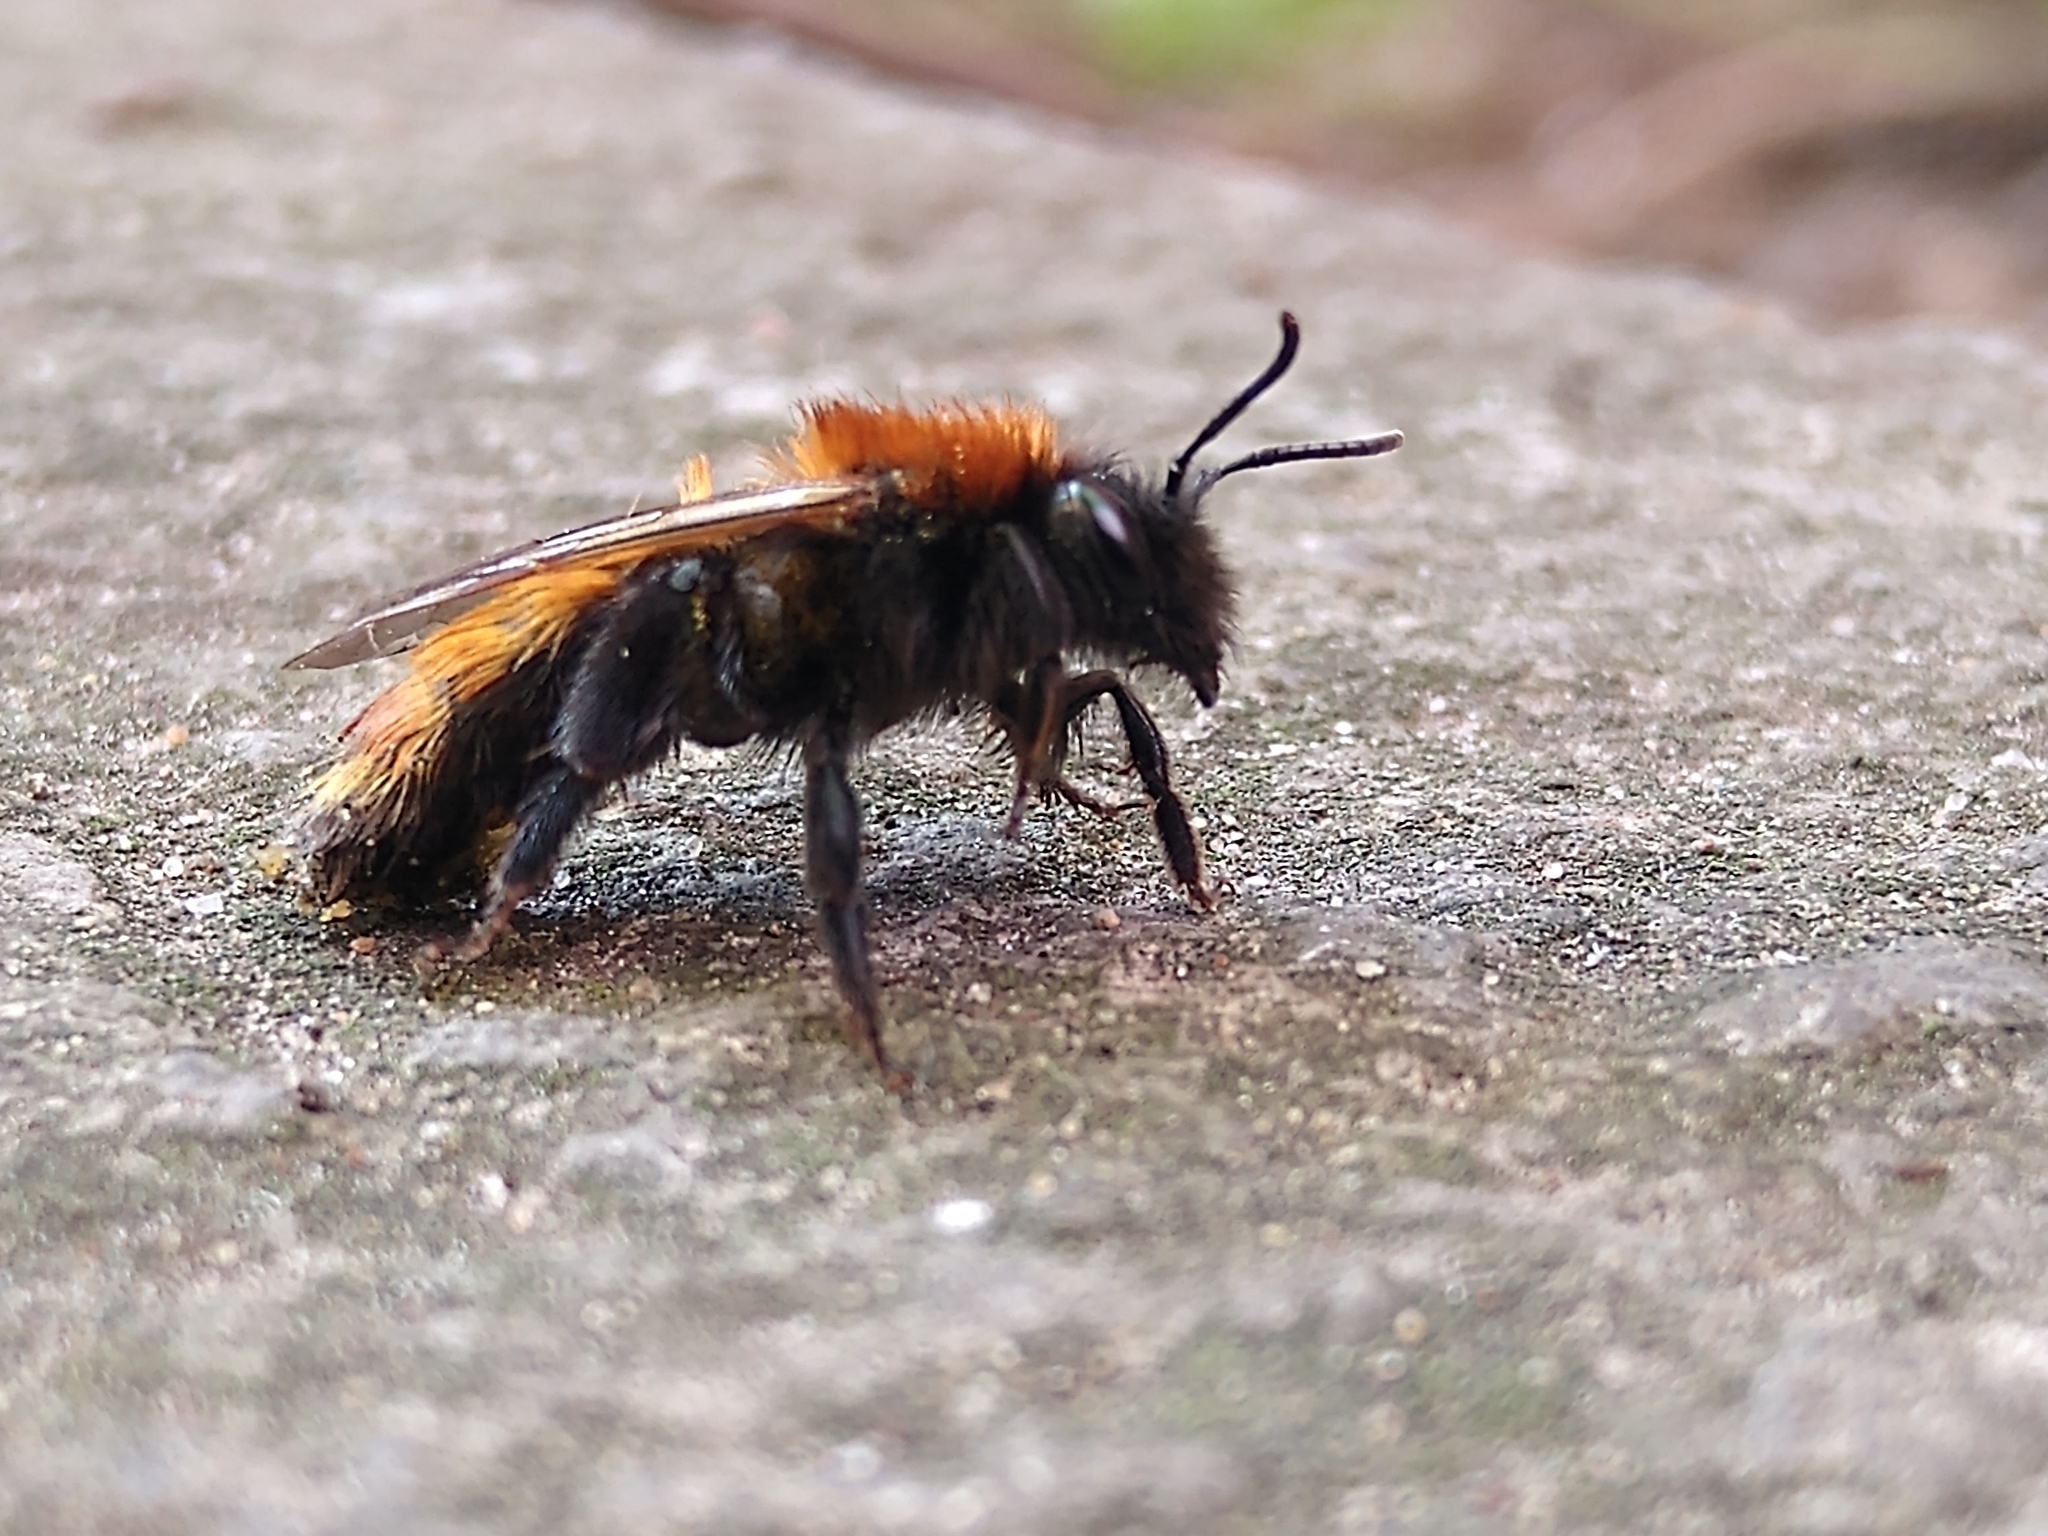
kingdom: Animalia
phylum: Arthropoda
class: Insecta
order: Hymenoptera
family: Andrenidae
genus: Andrena
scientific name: Andrena fulva
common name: Tawny mining bee
